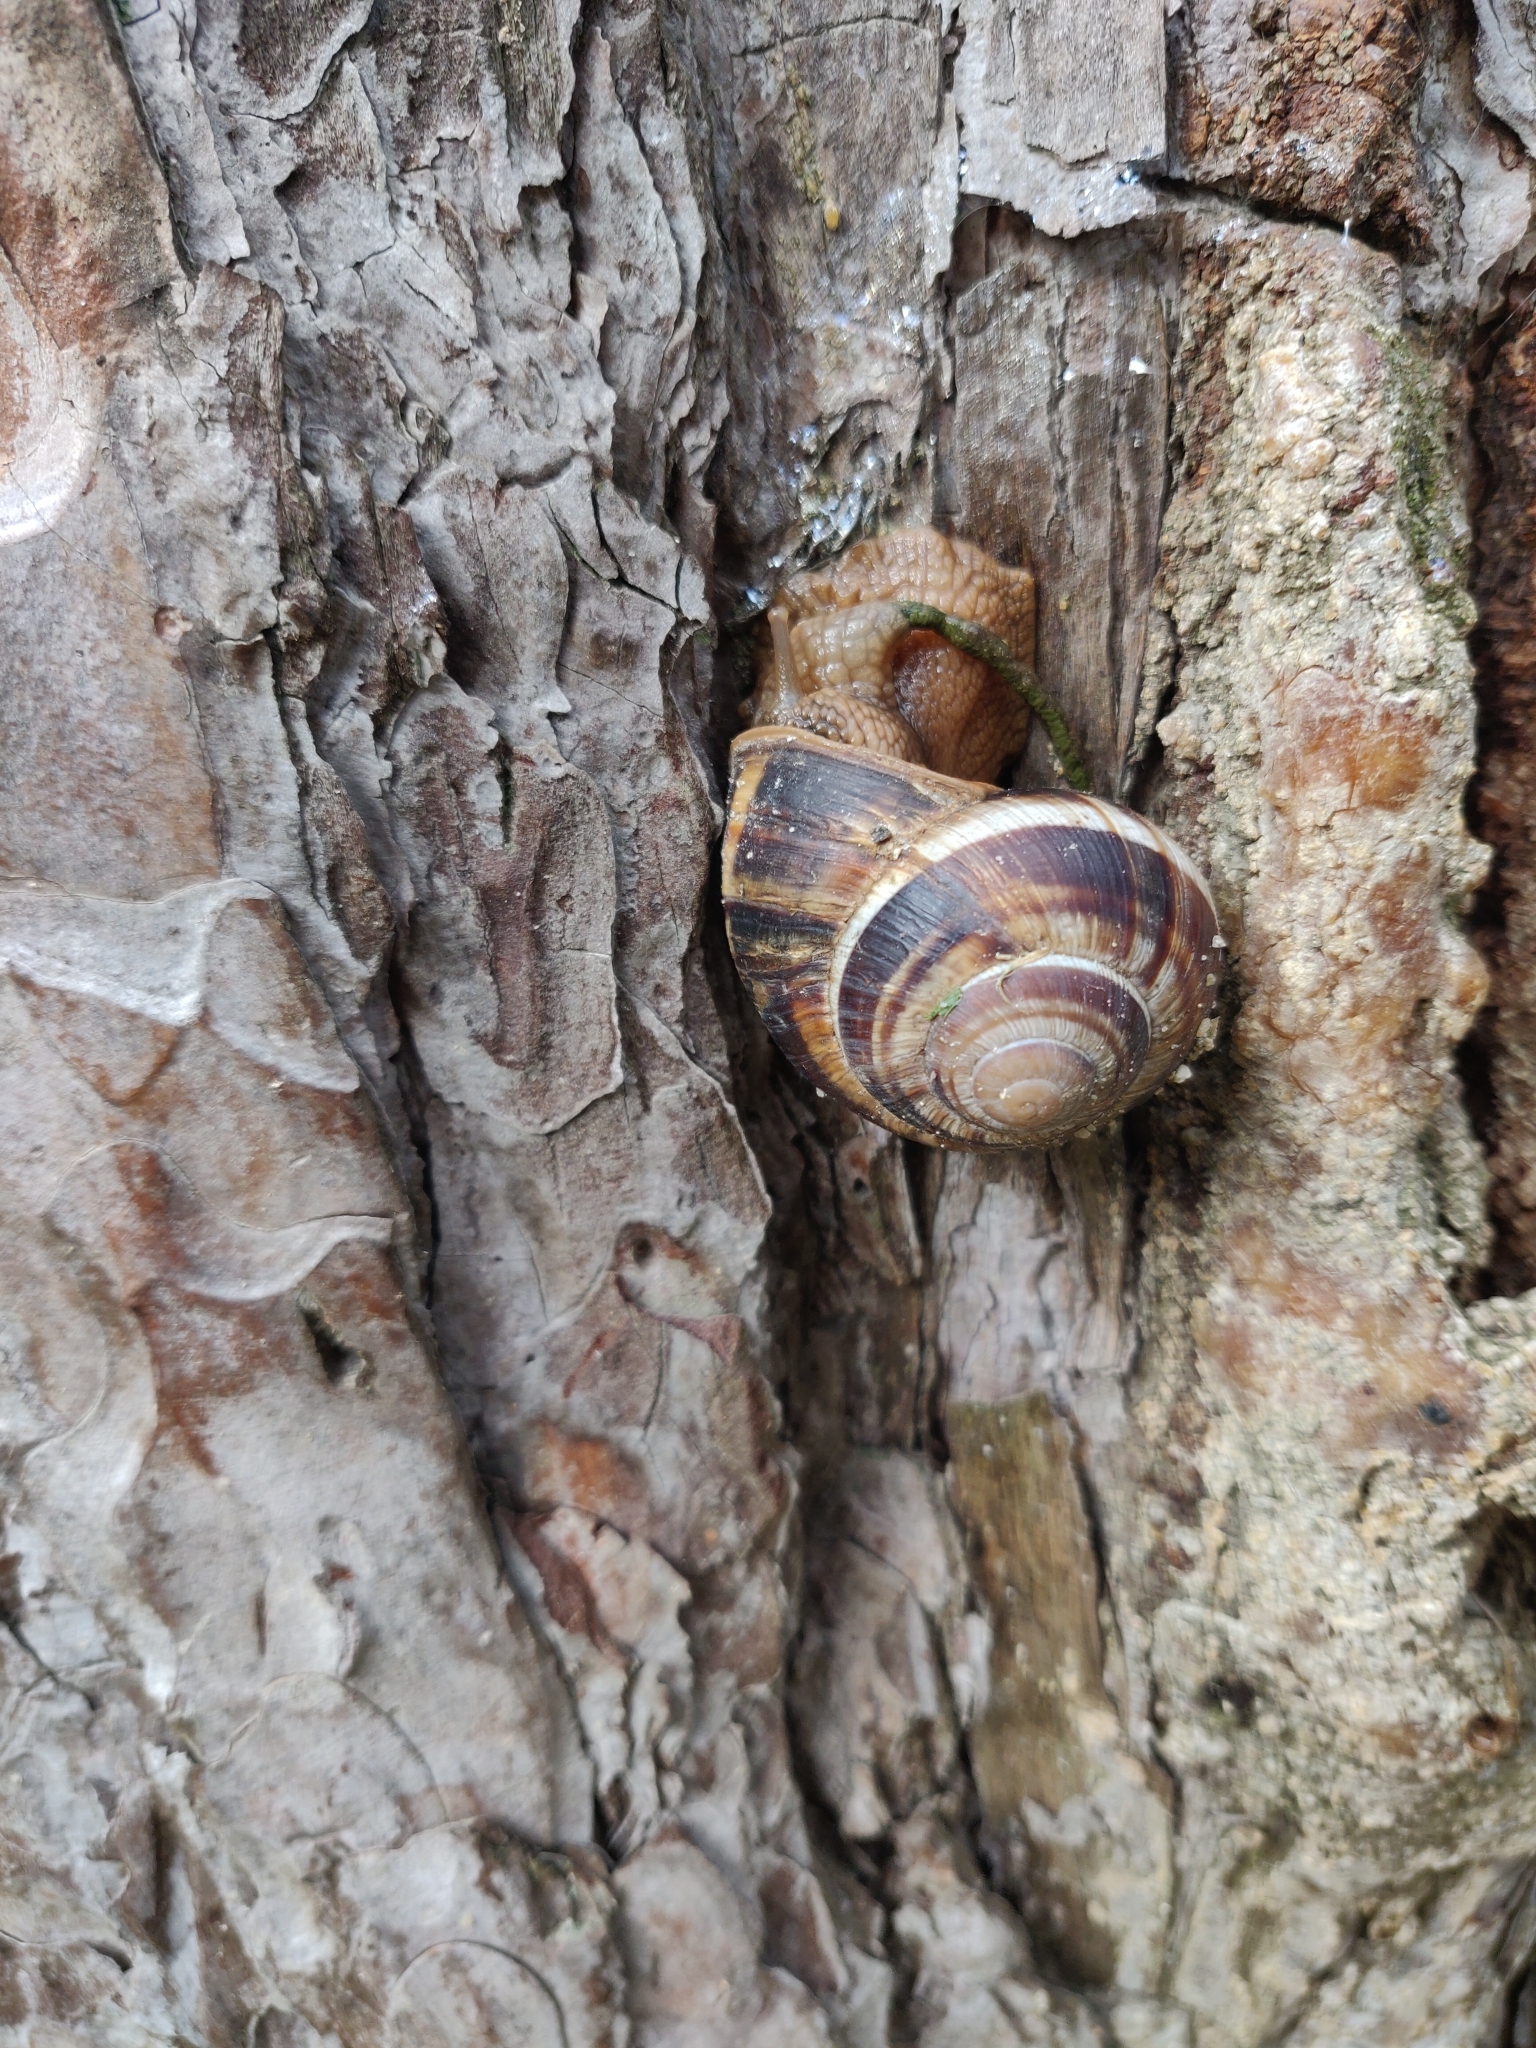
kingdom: Animalia
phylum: Mollusca
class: Gastropoda
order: Stylommatophora
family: Helicidae
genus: Helix
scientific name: Helix lucorum
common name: Turkish snail
